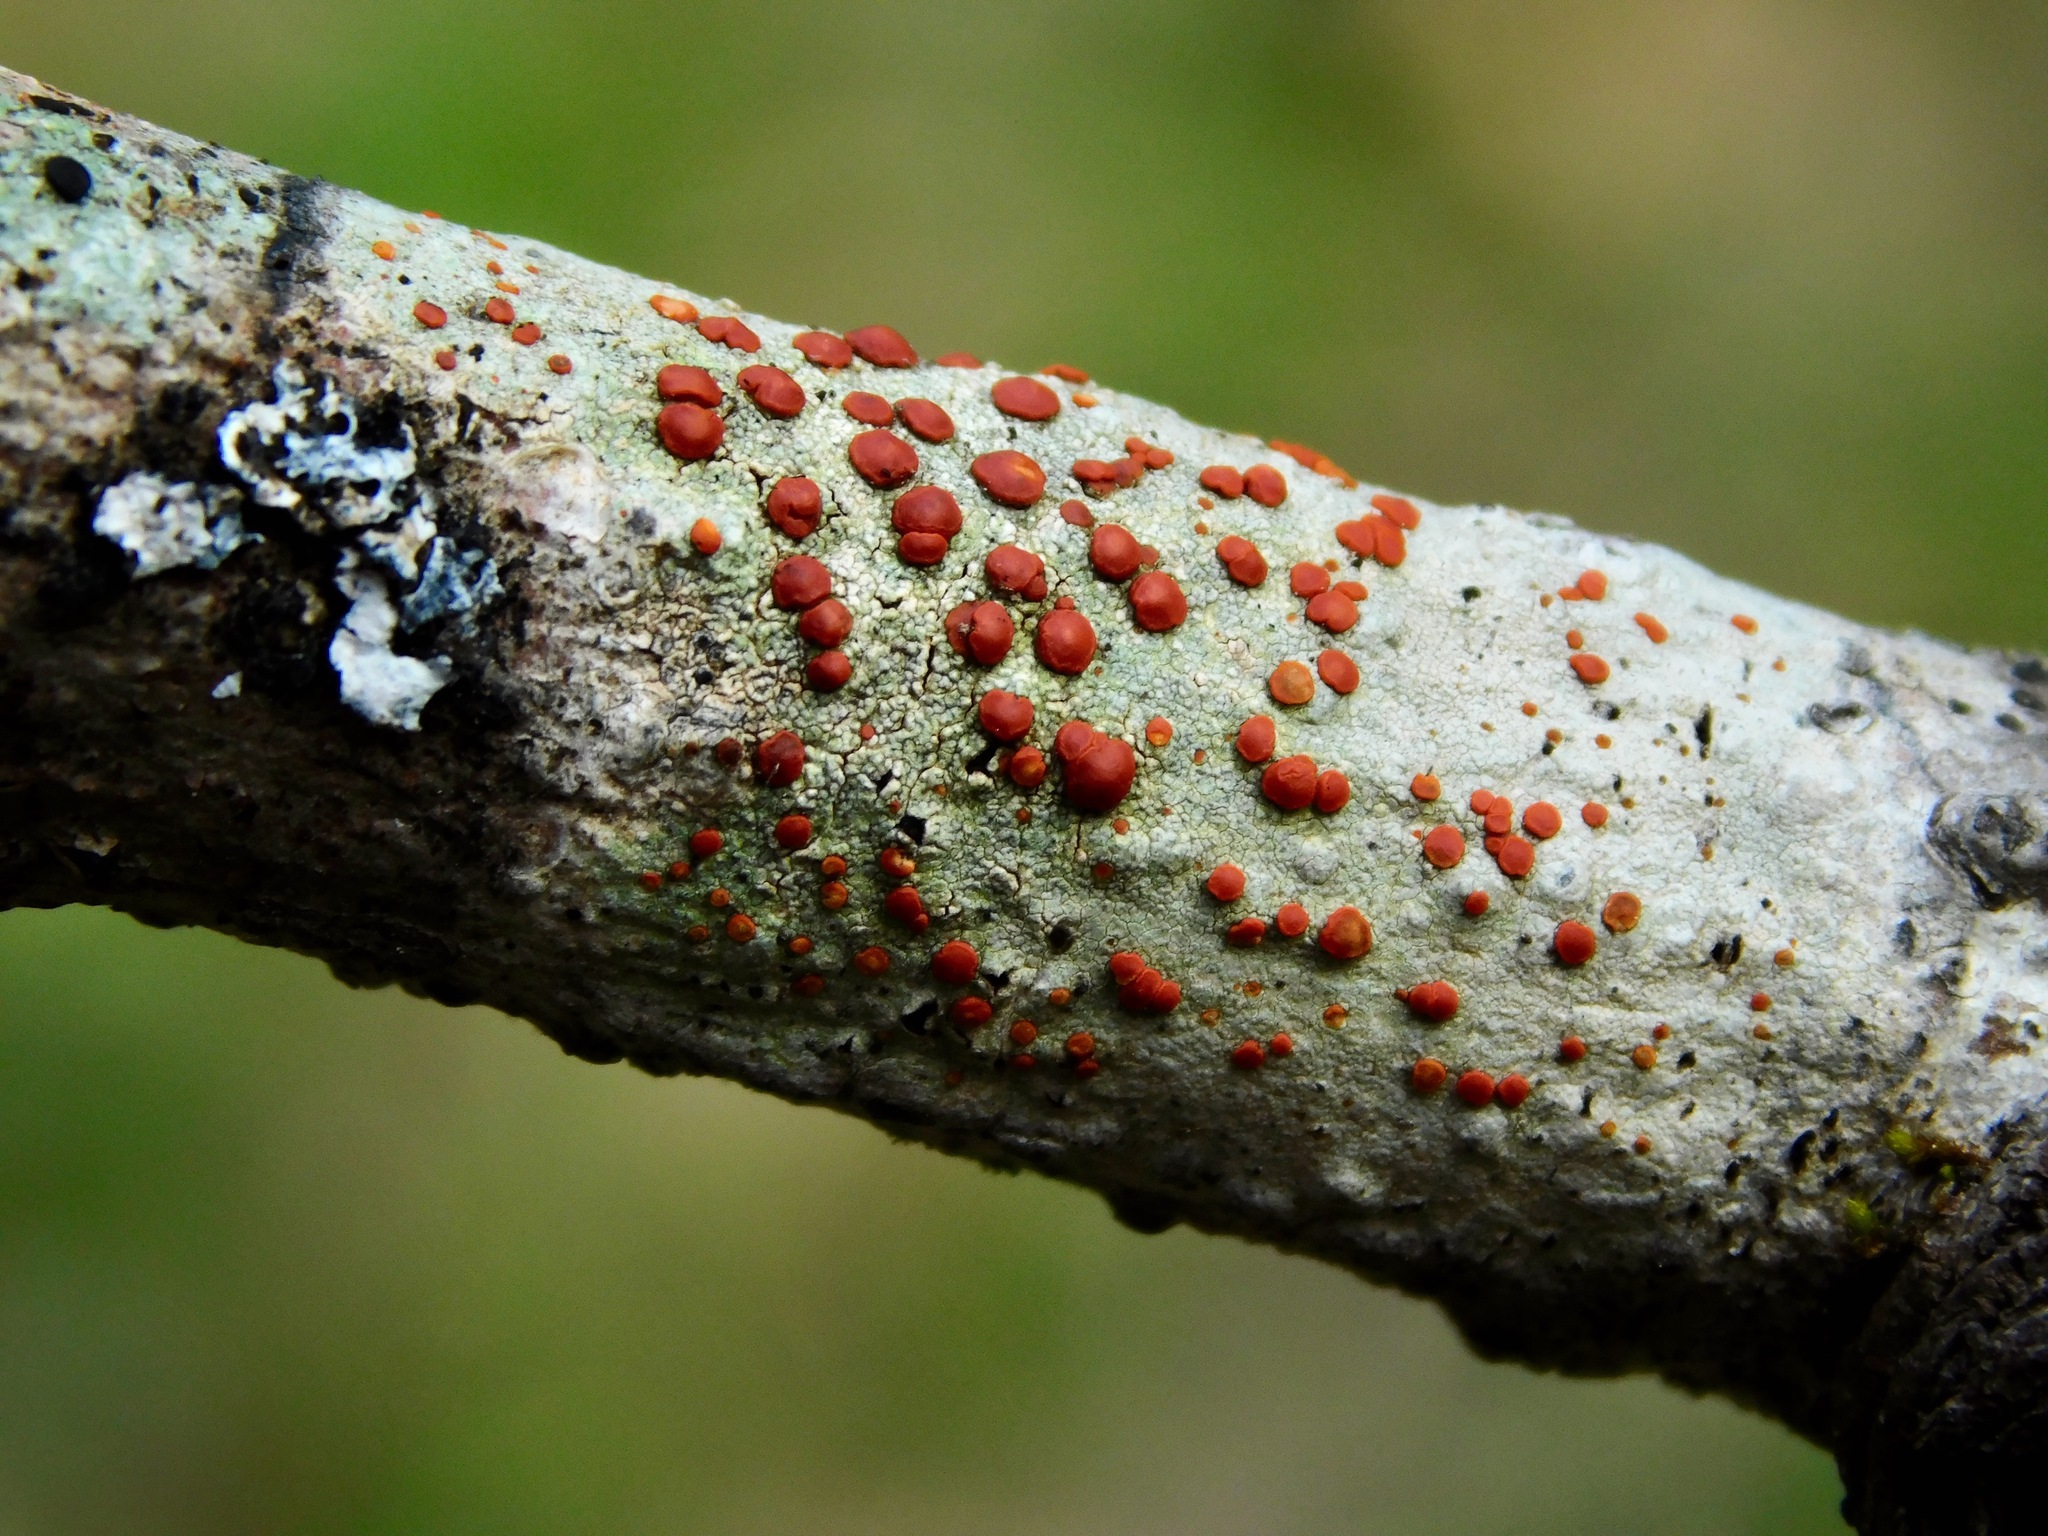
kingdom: Fungi
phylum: Ascomycota
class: Lecanoromycetes
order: Lecanorales
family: Ramboldiaceae
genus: Ramboldia
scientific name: Ramboldia russula
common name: Red heads
